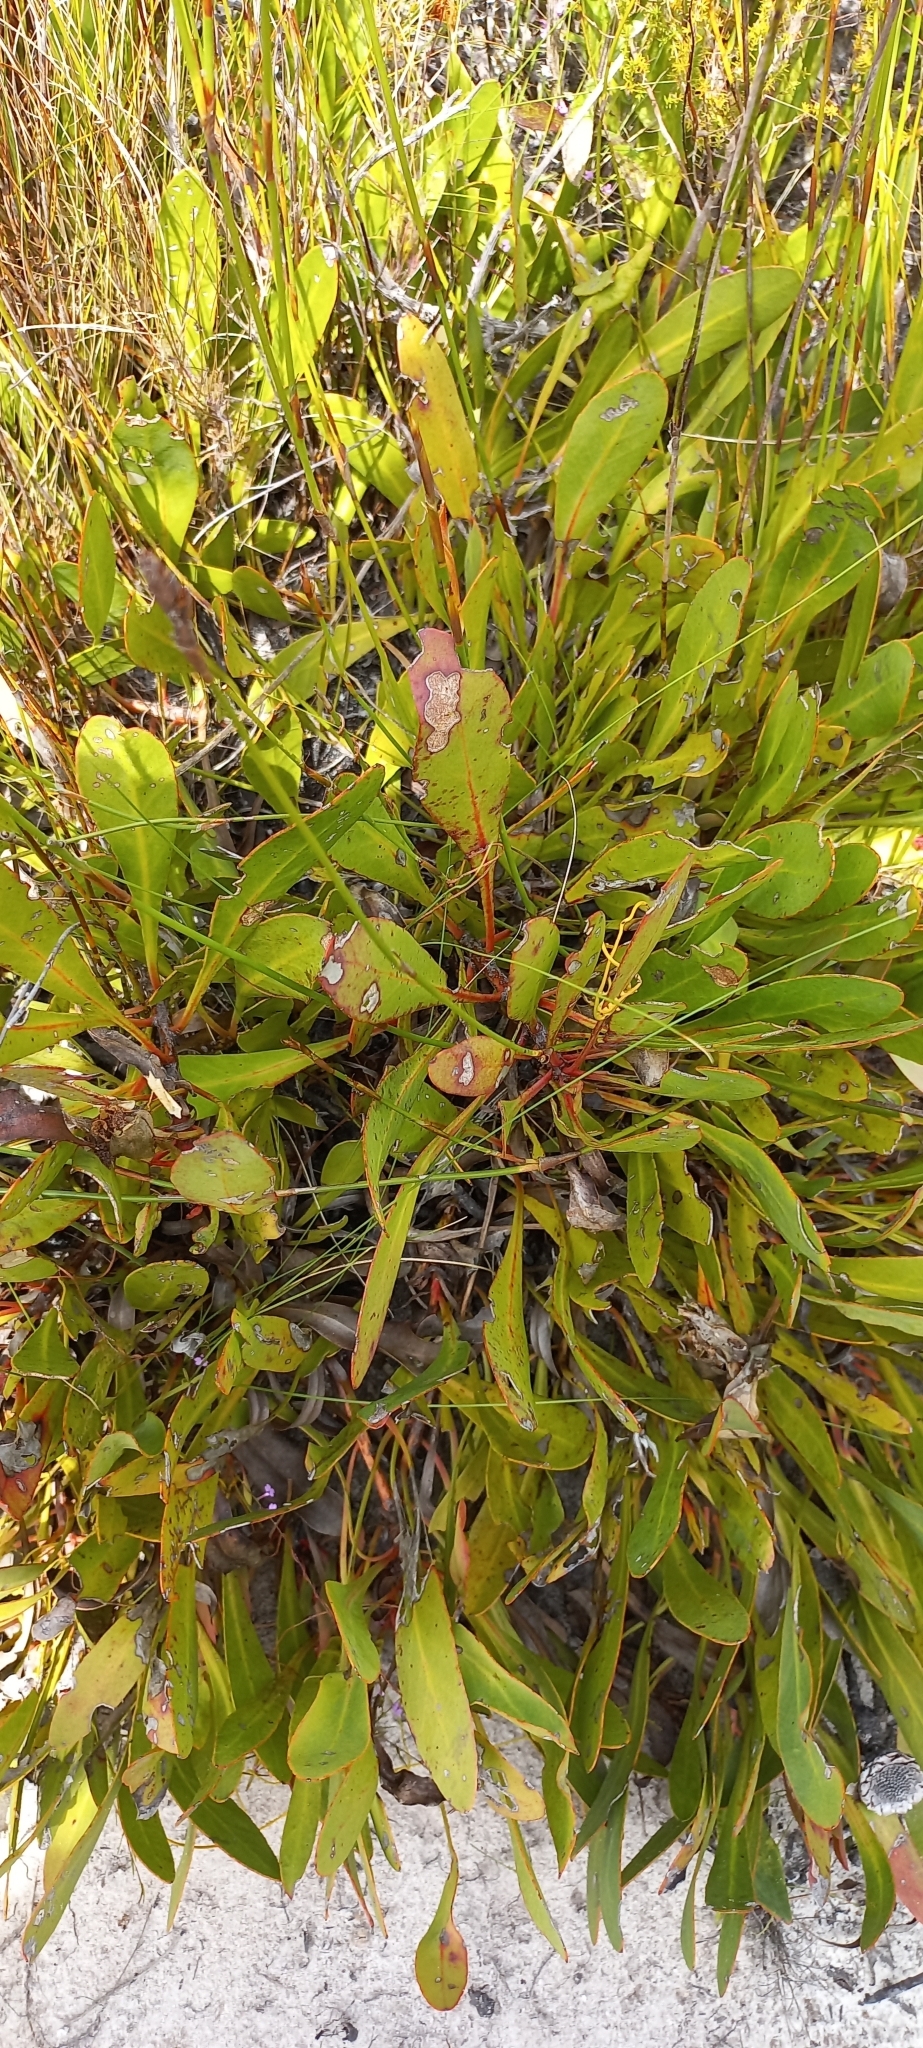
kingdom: Plantae
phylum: Tracheophyta
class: Magnoliopsida
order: Proteales
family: Proteaceae
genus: Protea
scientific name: Protea acaulos
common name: Common ground sugarbush
